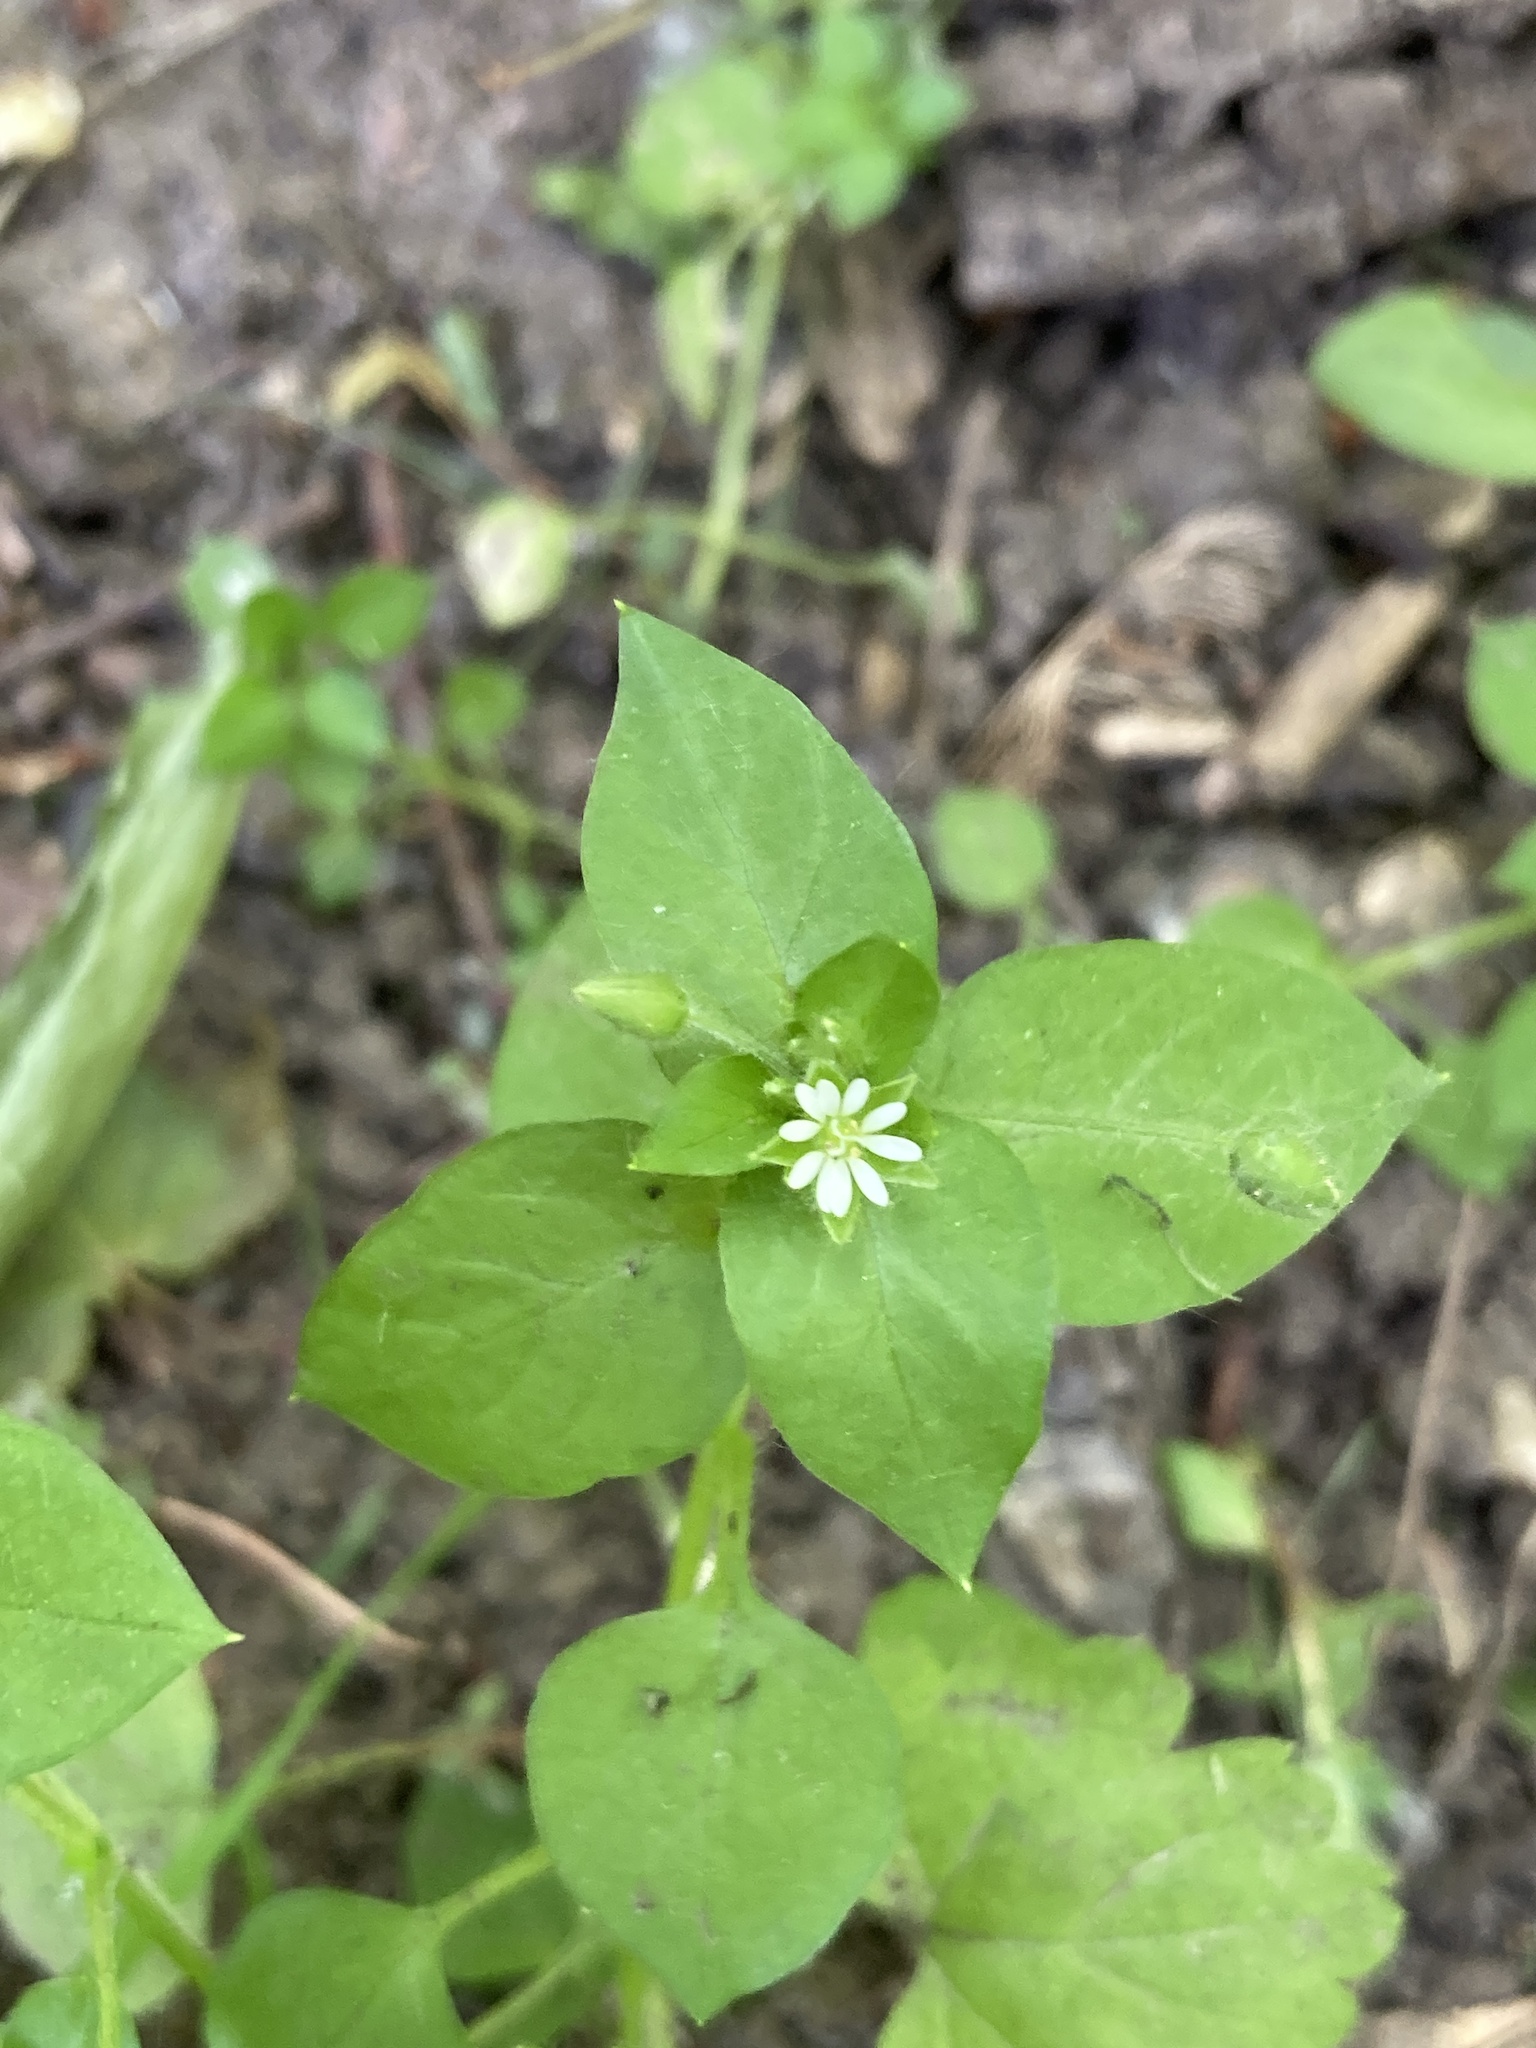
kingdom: Plantae
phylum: Tracheophyta
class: Magnoliopsida
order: Caryophyllales
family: Caryophyllaceae
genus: Stellaria
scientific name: Stellaria media
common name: Common chickweed
